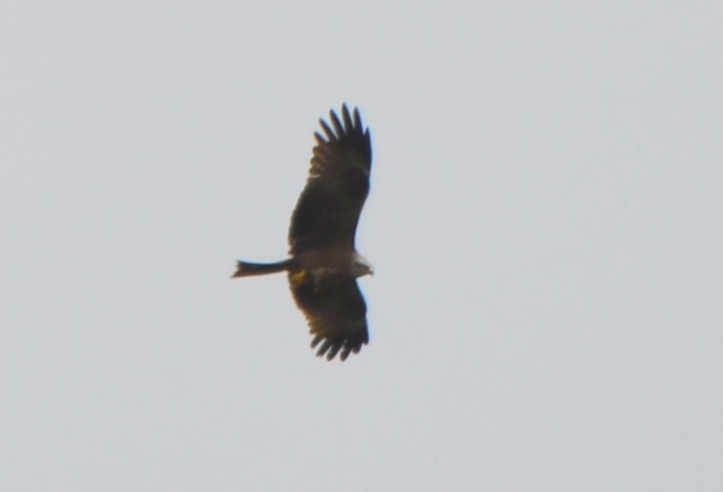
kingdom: Animalia
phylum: Chordata
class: Aves
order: Accipitriformes
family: Accipitridae
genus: Milvus
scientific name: Milvus migrans
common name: Black kite
